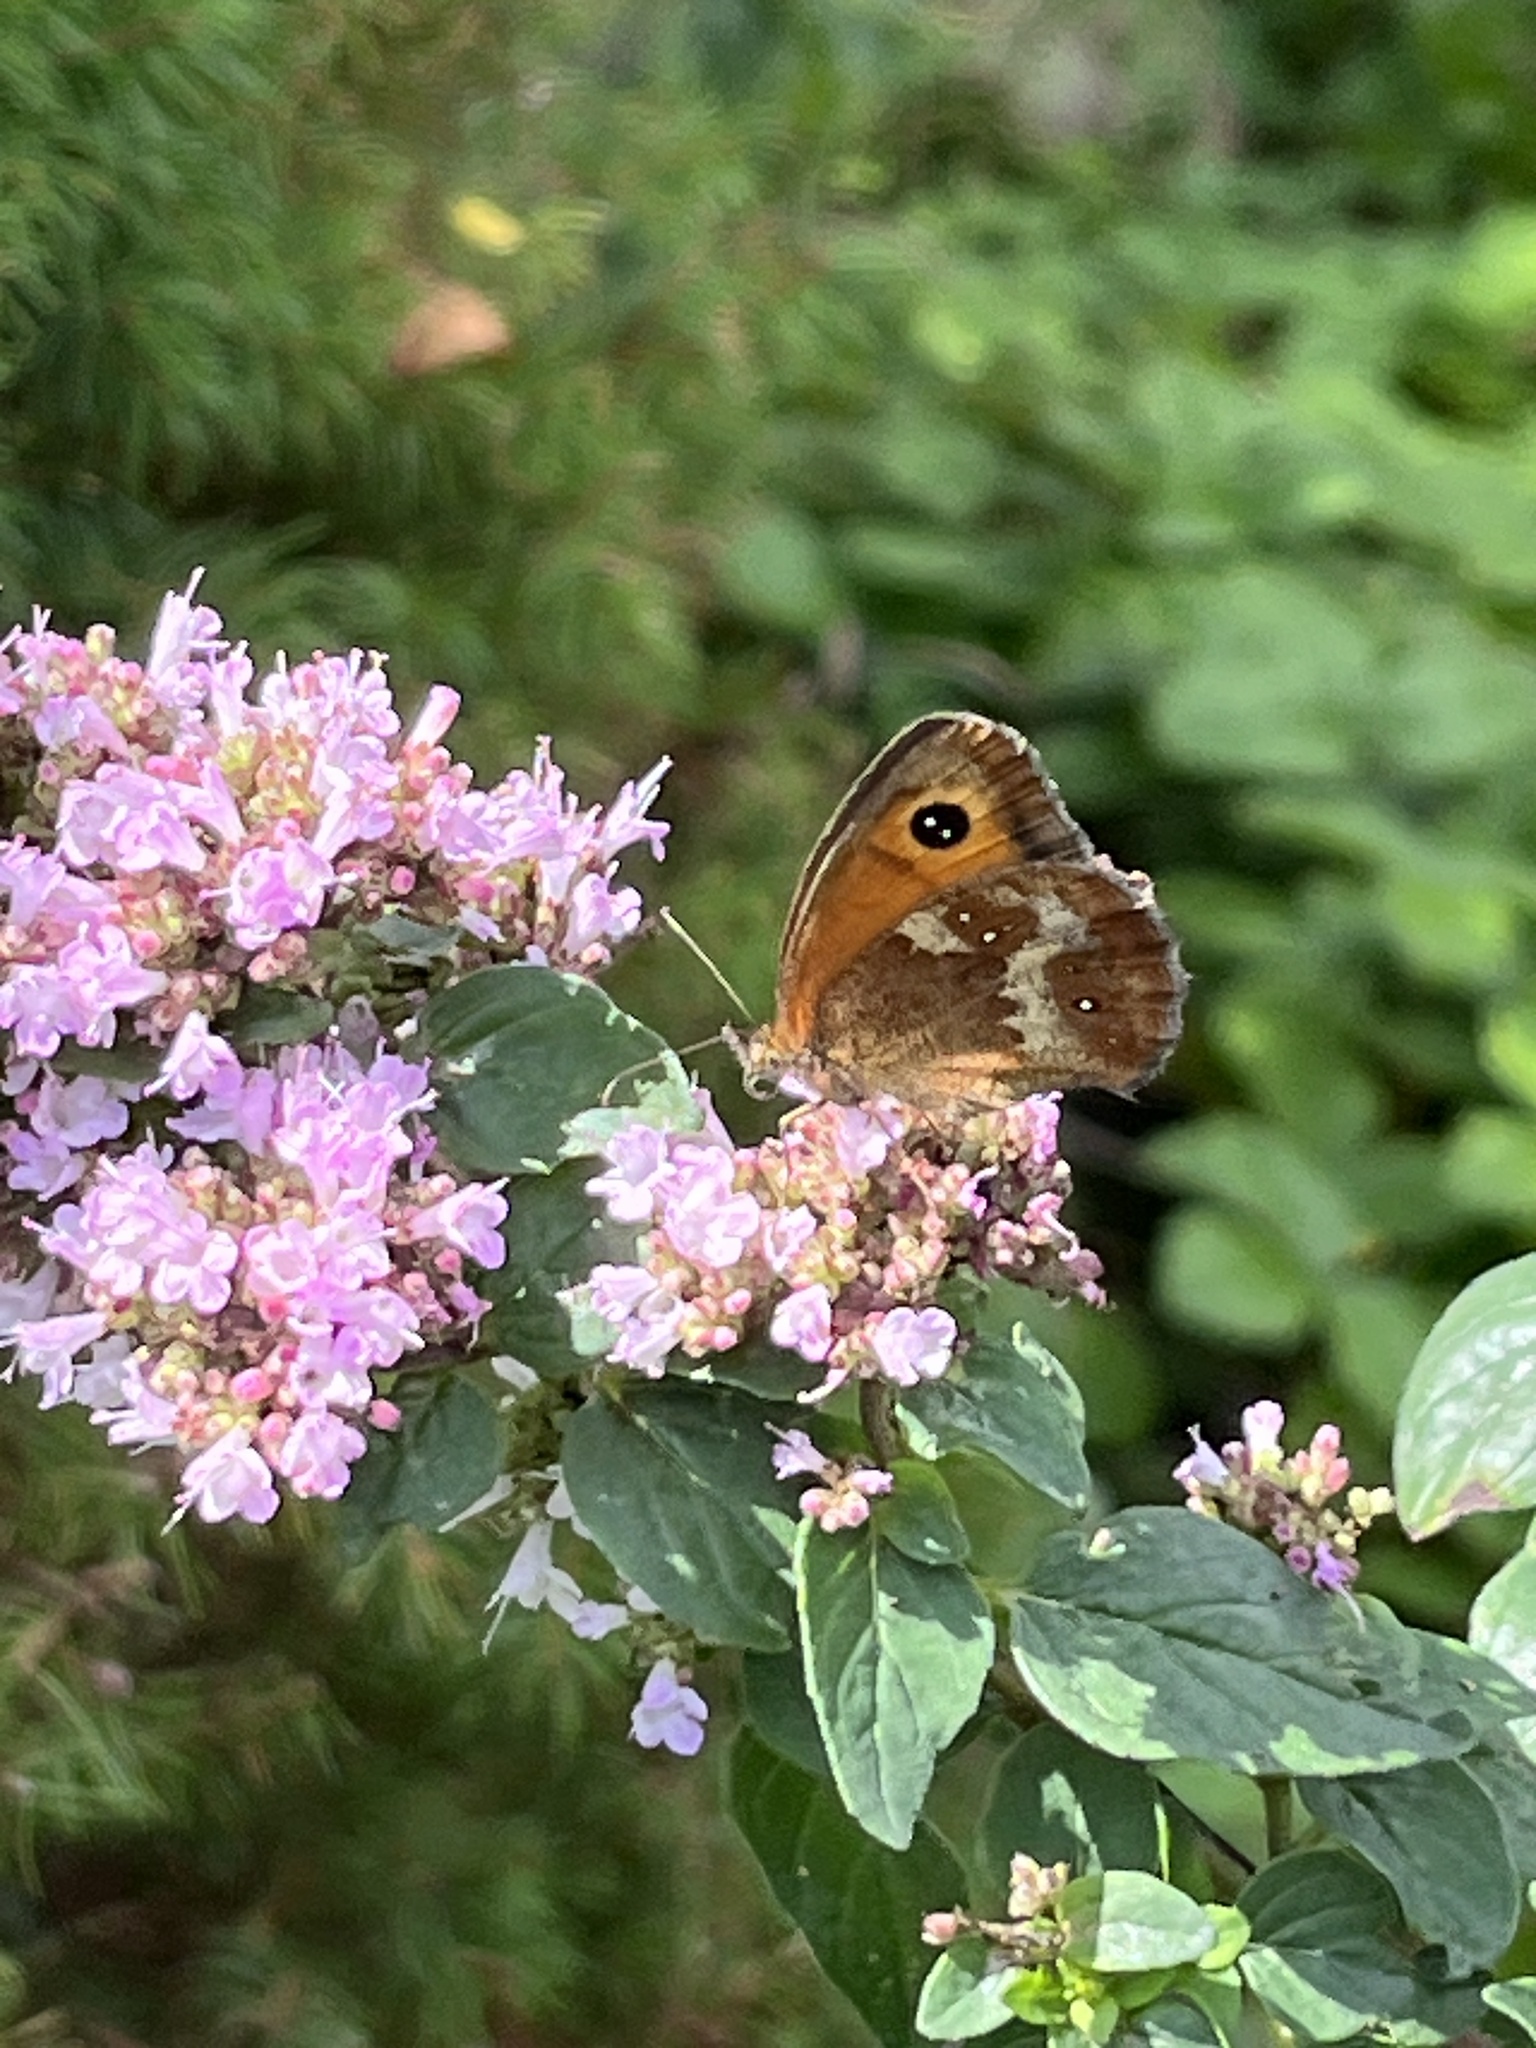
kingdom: Animalia
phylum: Arthropoda
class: Insecta
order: Lepidoptera
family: Nymphalidae
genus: Pyronia
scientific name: Pyronia tithonus
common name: Gatekeeper
